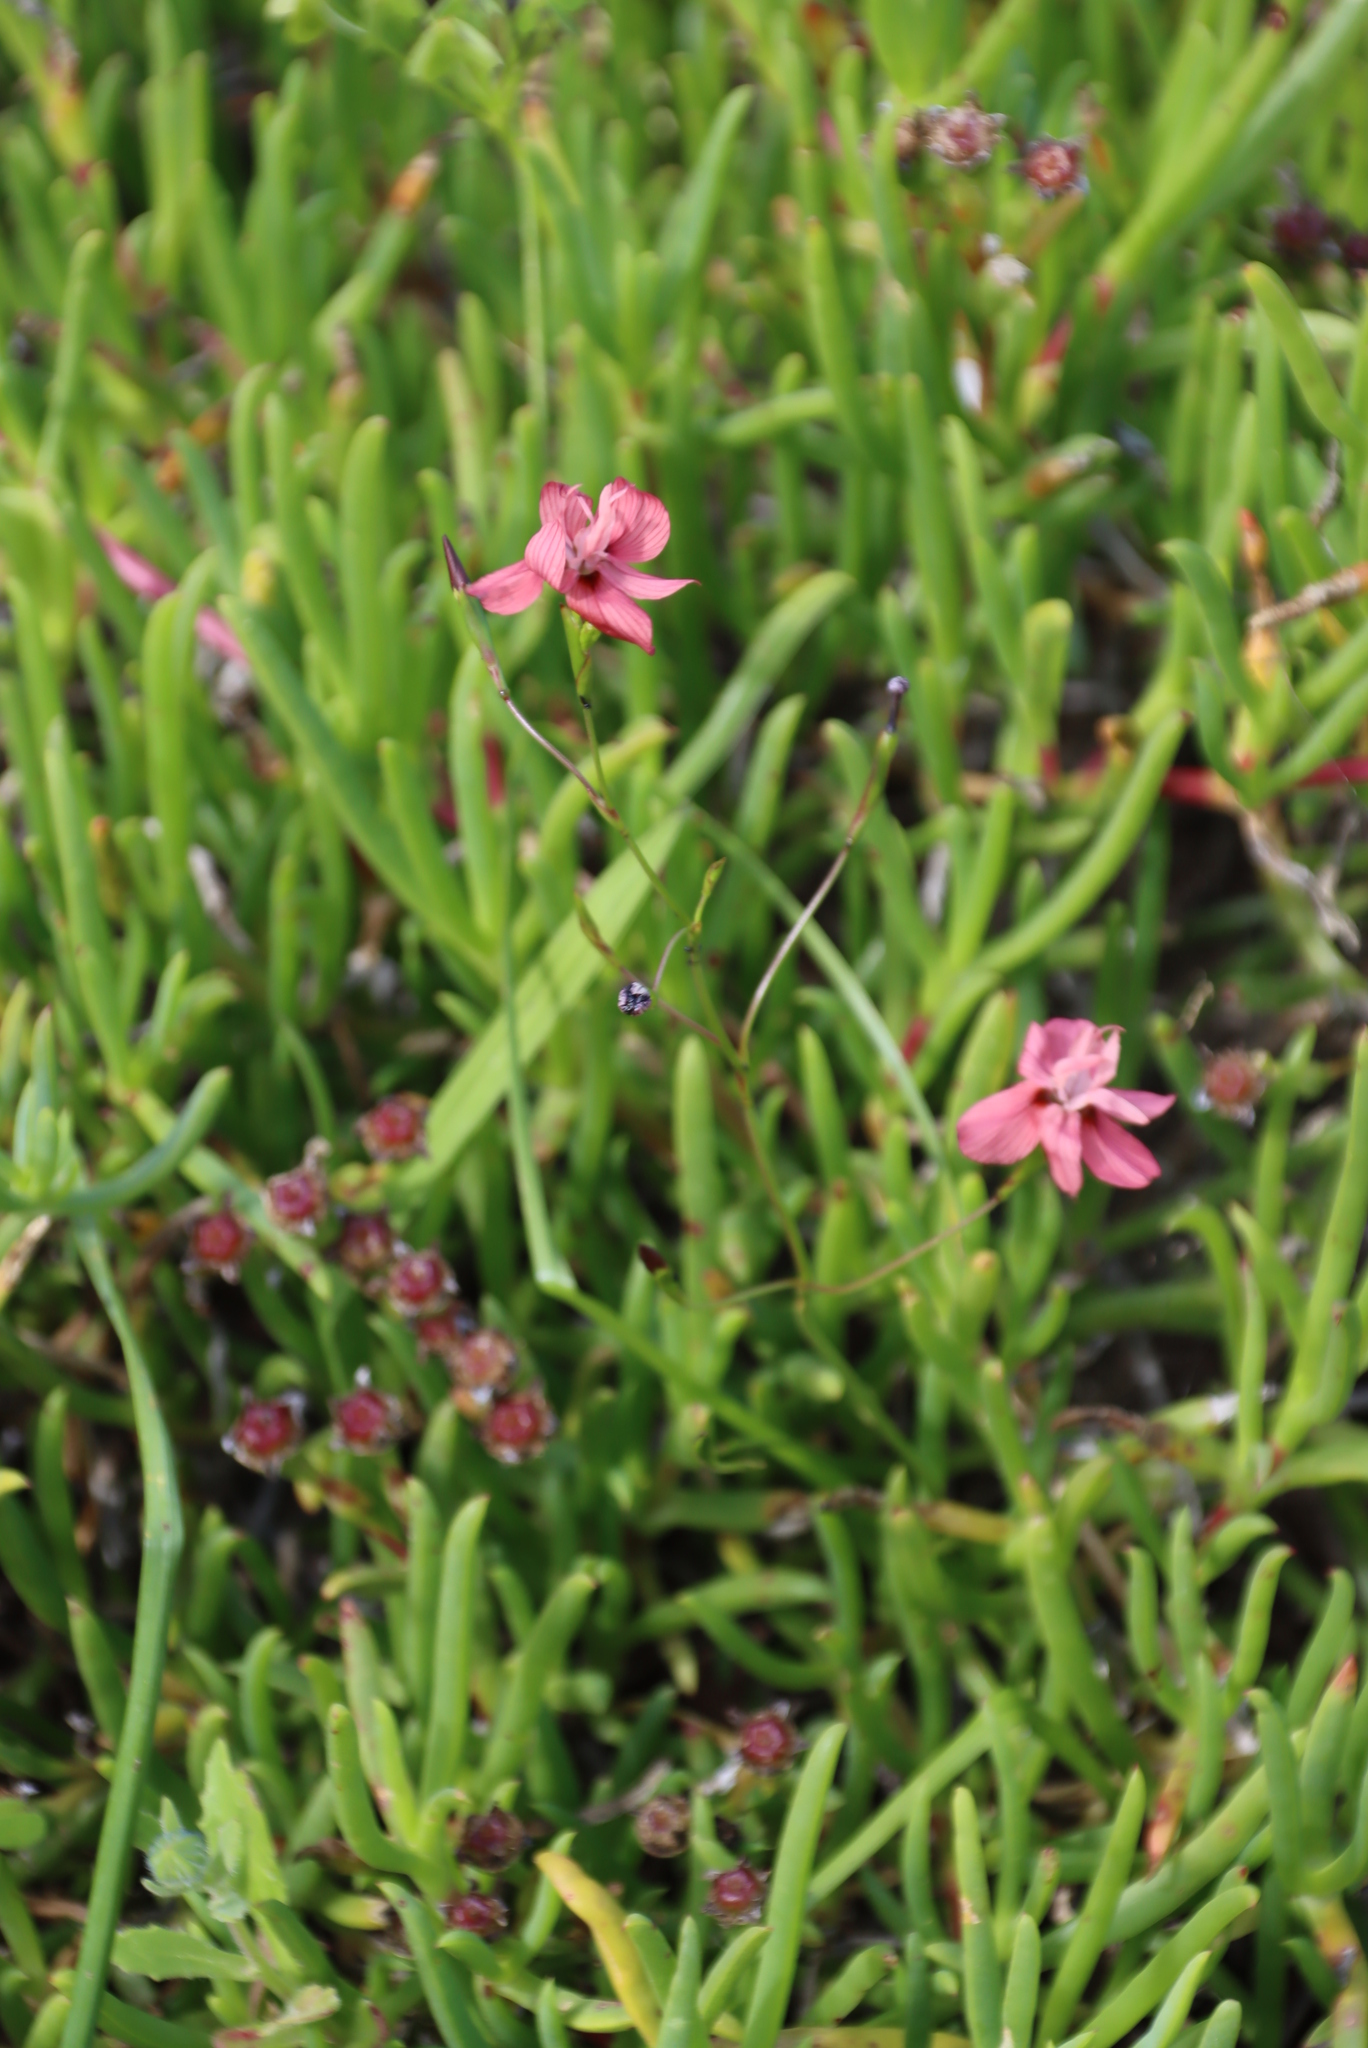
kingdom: Plantae
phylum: Tracheophyta
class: Liliopsida
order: Asparagales
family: Iridaceae
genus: Moraea
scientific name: Moraea gawleri
